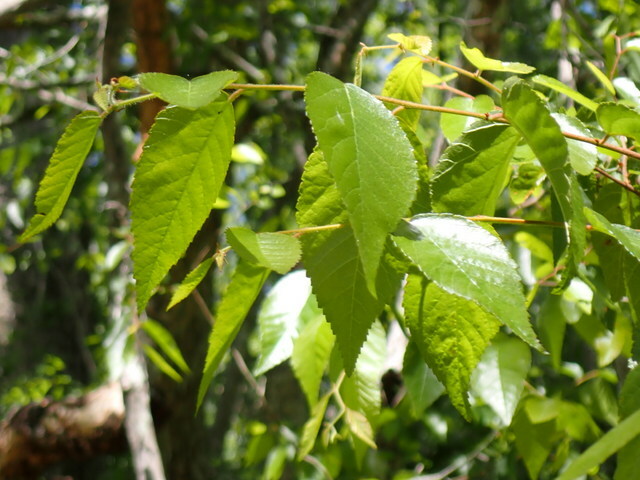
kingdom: Plantae
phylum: Tracheophyta
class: Magnoliopsida
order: Rosales
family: Ulmaceae
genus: Planera
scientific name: Planera aquatica
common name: Water-elm
